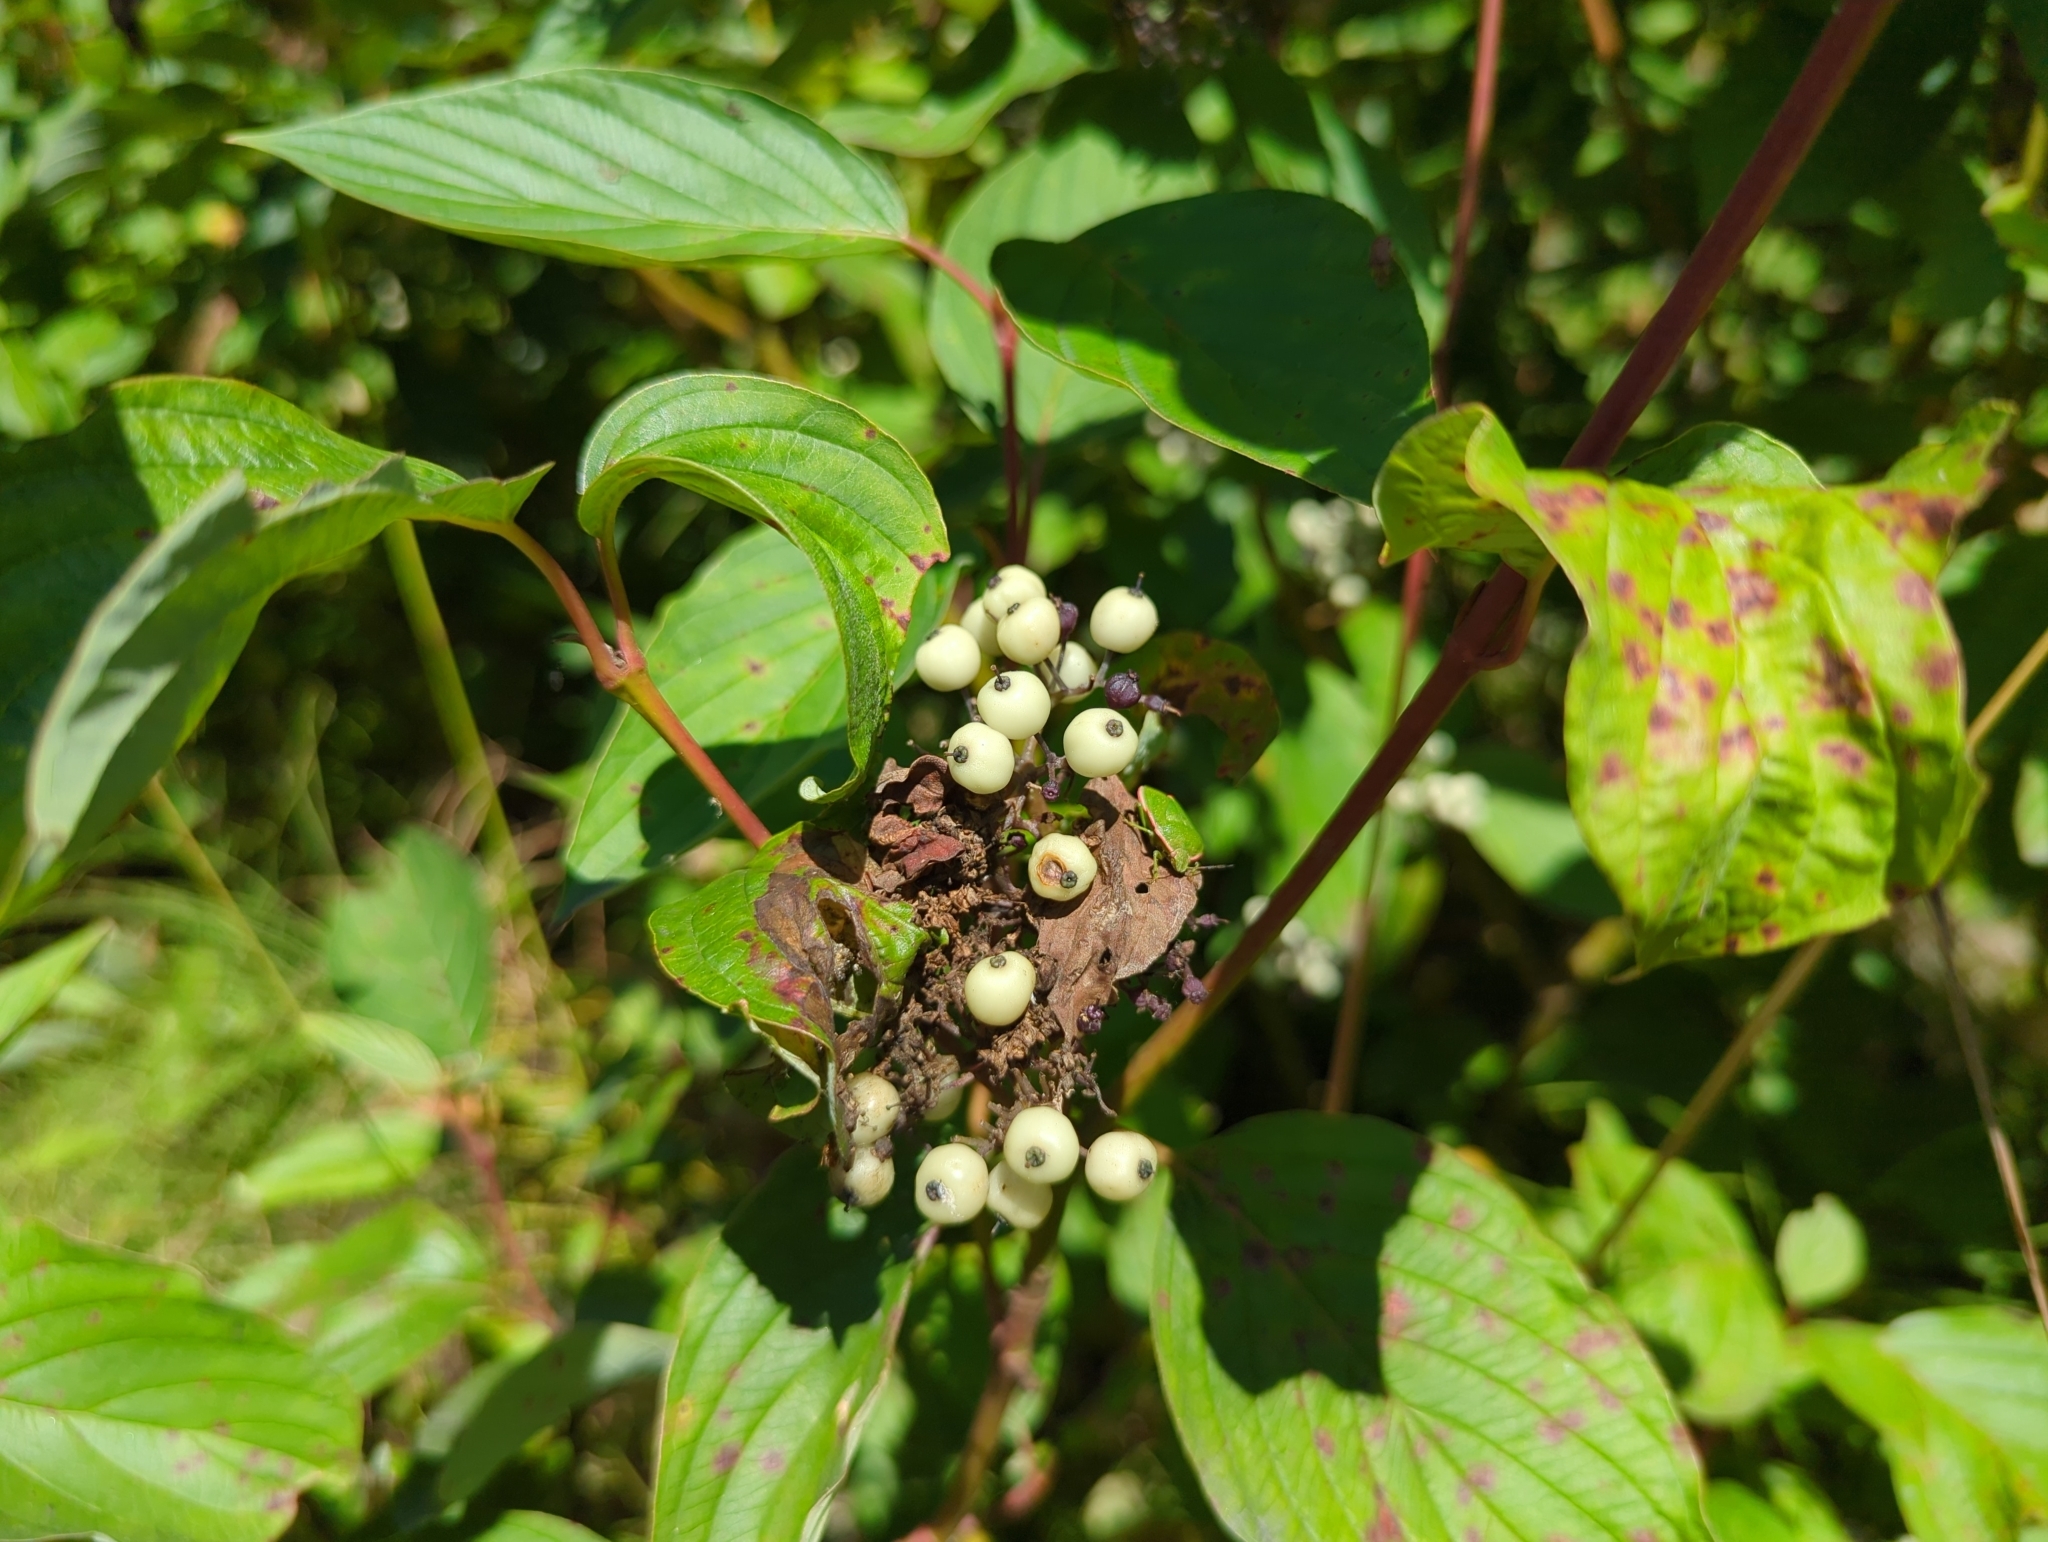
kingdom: Plantae
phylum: Tracheophyta
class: Magnoliopsida
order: Cornales
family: Cornaceae
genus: Cornus
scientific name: Cornus sericea
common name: Red-osier dogwood
